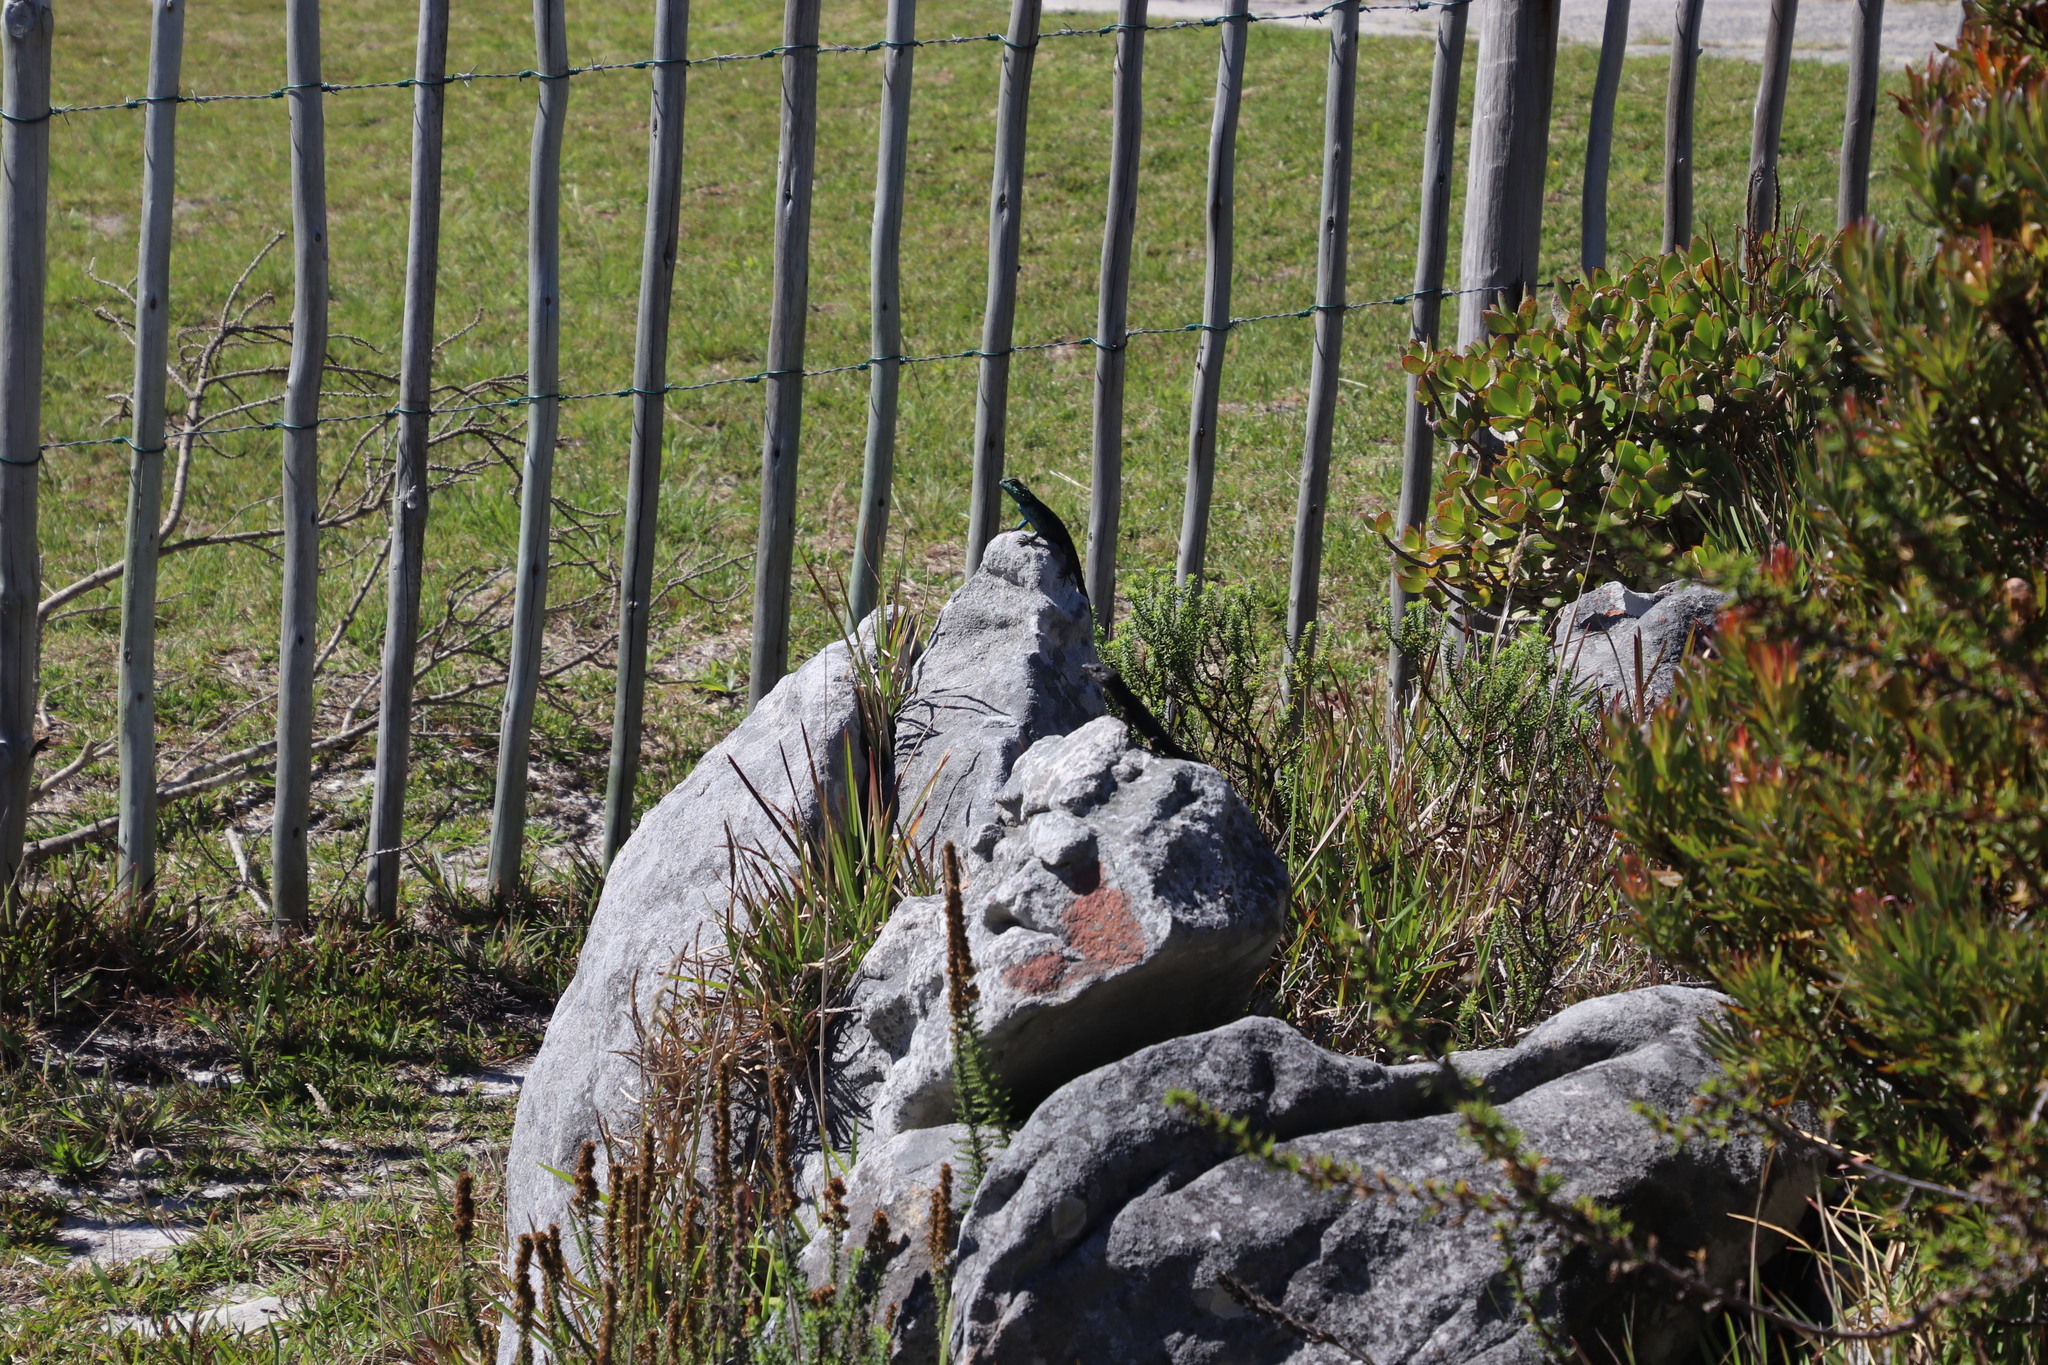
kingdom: Animalia
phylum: Chordata
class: Squamata
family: Cordylidae
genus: Cordylus
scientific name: Cordylus niger
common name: Black girdled lizard
